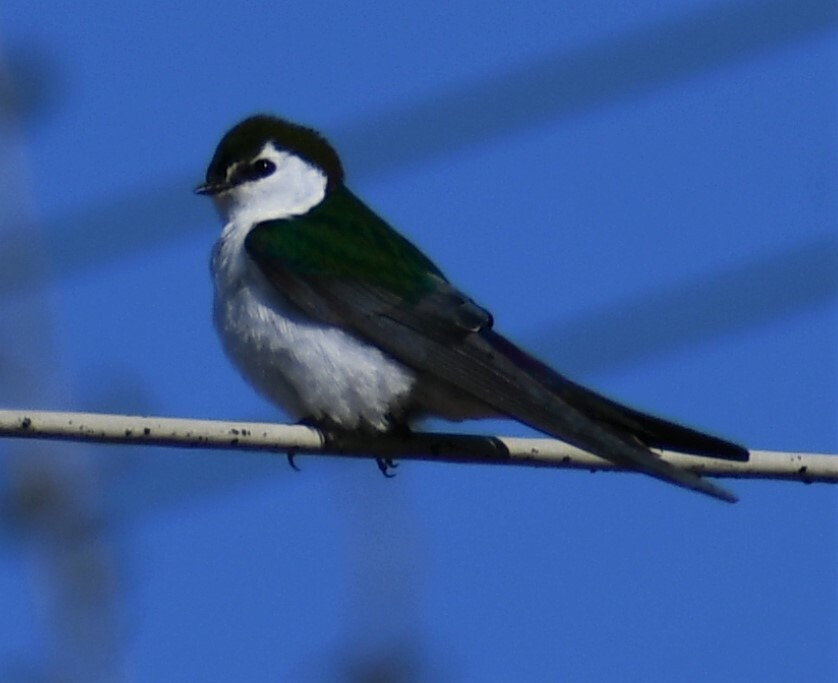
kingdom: Animalia
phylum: Chordata
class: Aves
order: Passeriformes
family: Hirundinidae
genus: Tachycineta
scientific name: Tachycineta thalassina
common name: Violet-green swallow
